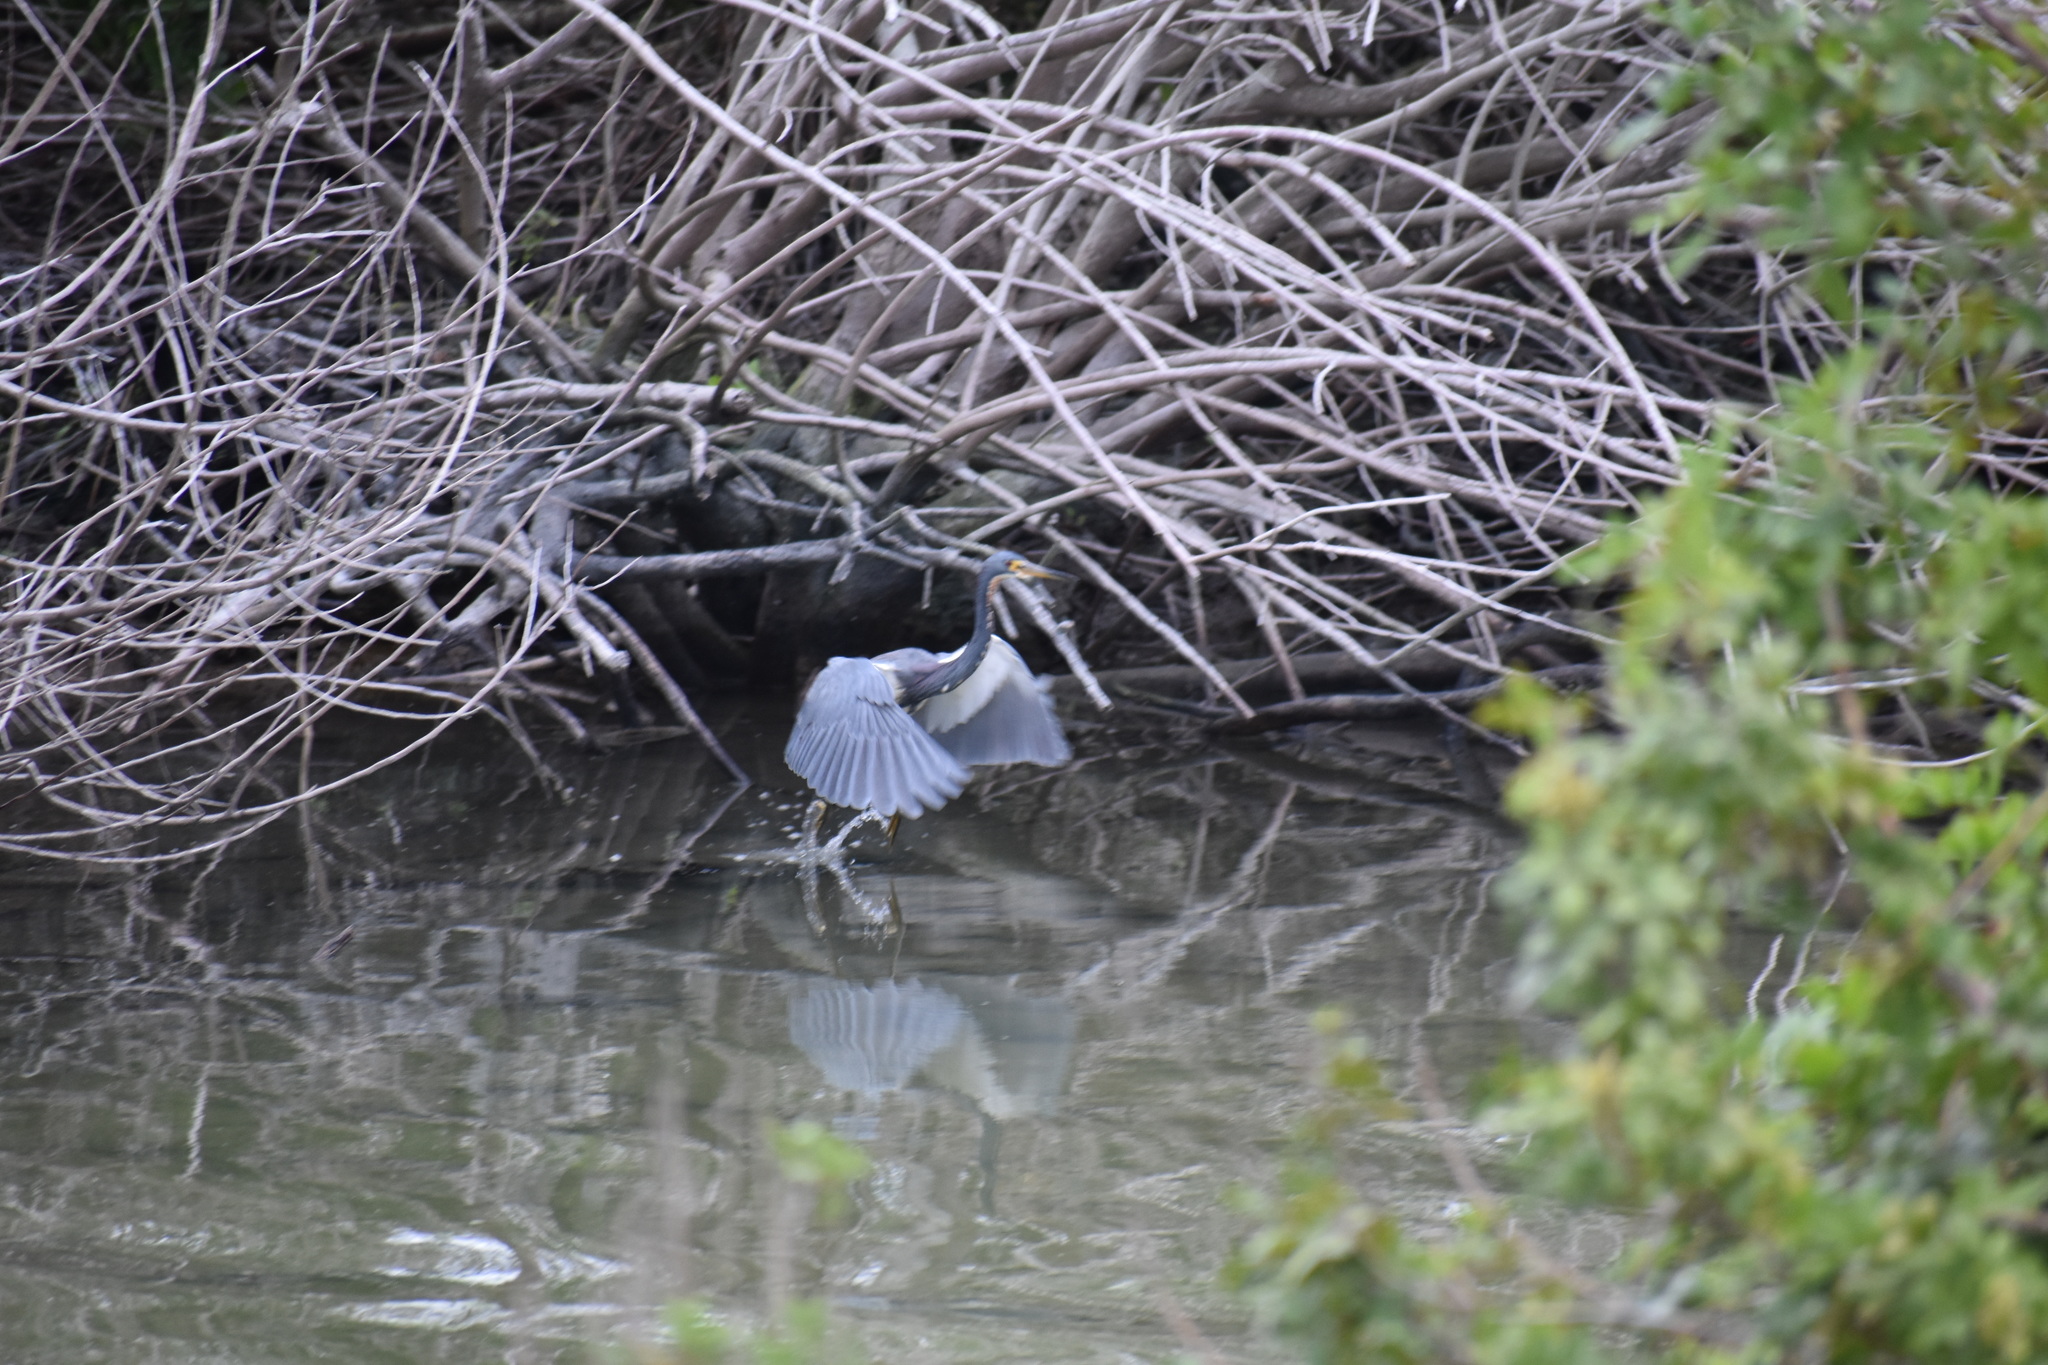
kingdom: Animalia
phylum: Chordata
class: Aves
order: Pelecaniformes
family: Ardeidae
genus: Egretta
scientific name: Egretta tricolor
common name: Tricolored heron
